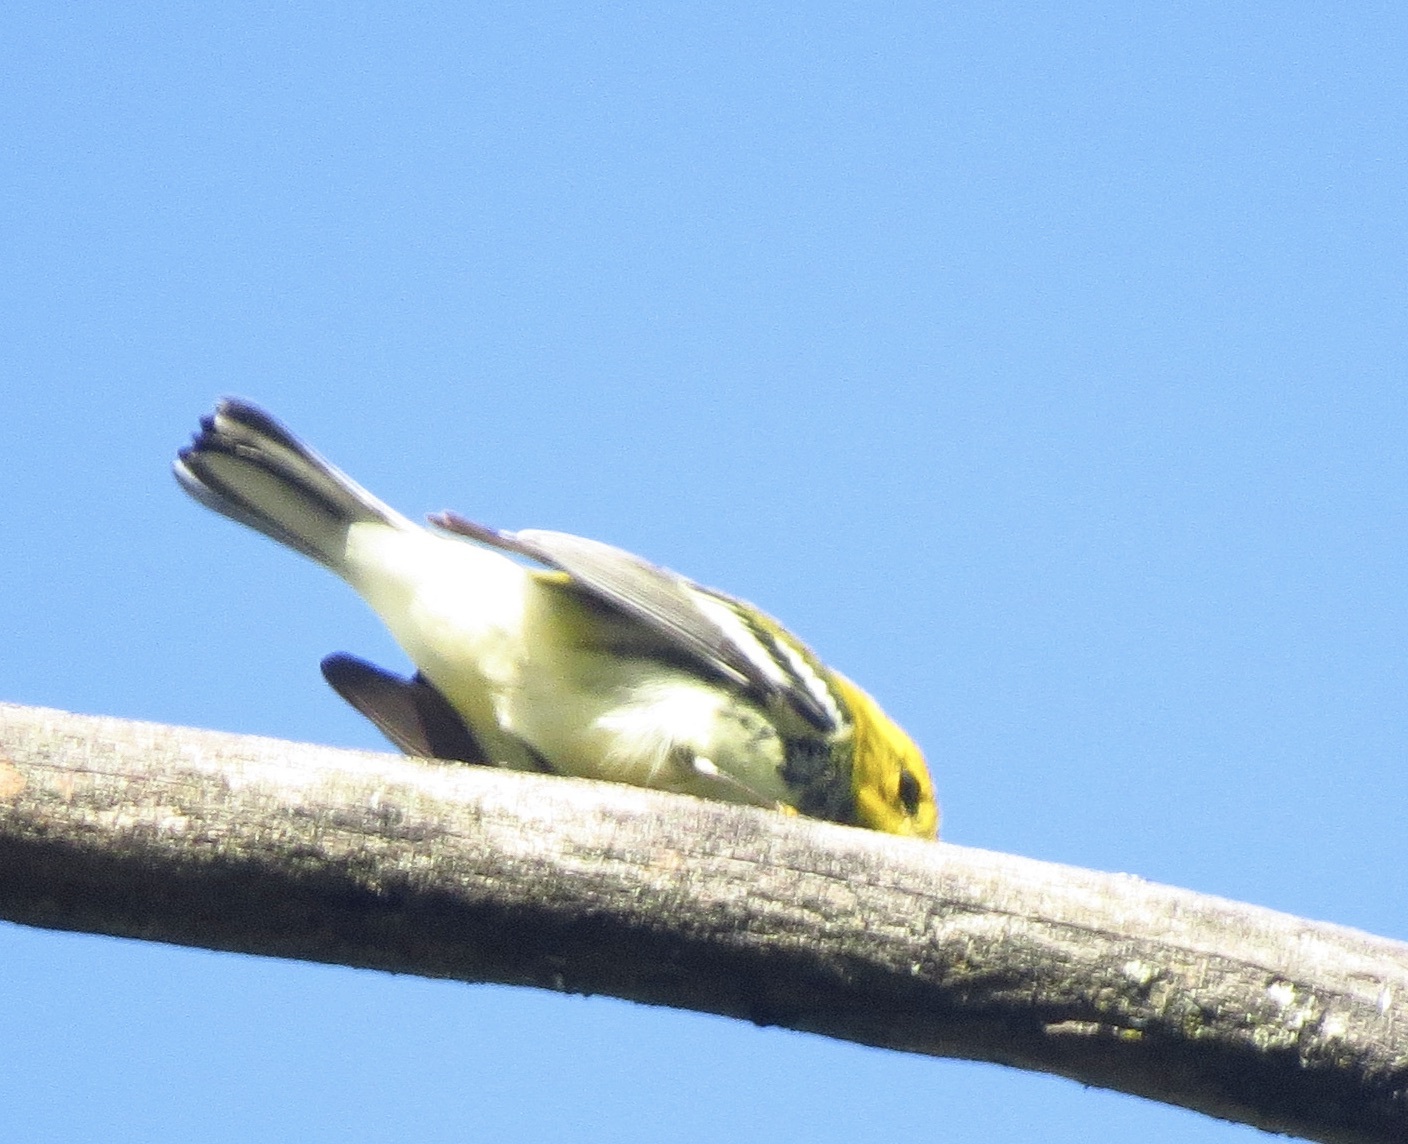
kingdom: Animalia
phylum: Chordata
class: Aves
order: Passeriformes
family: Parulidae
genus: Setophaga
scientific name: Setophaga virens
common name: Black-throated green warbler
